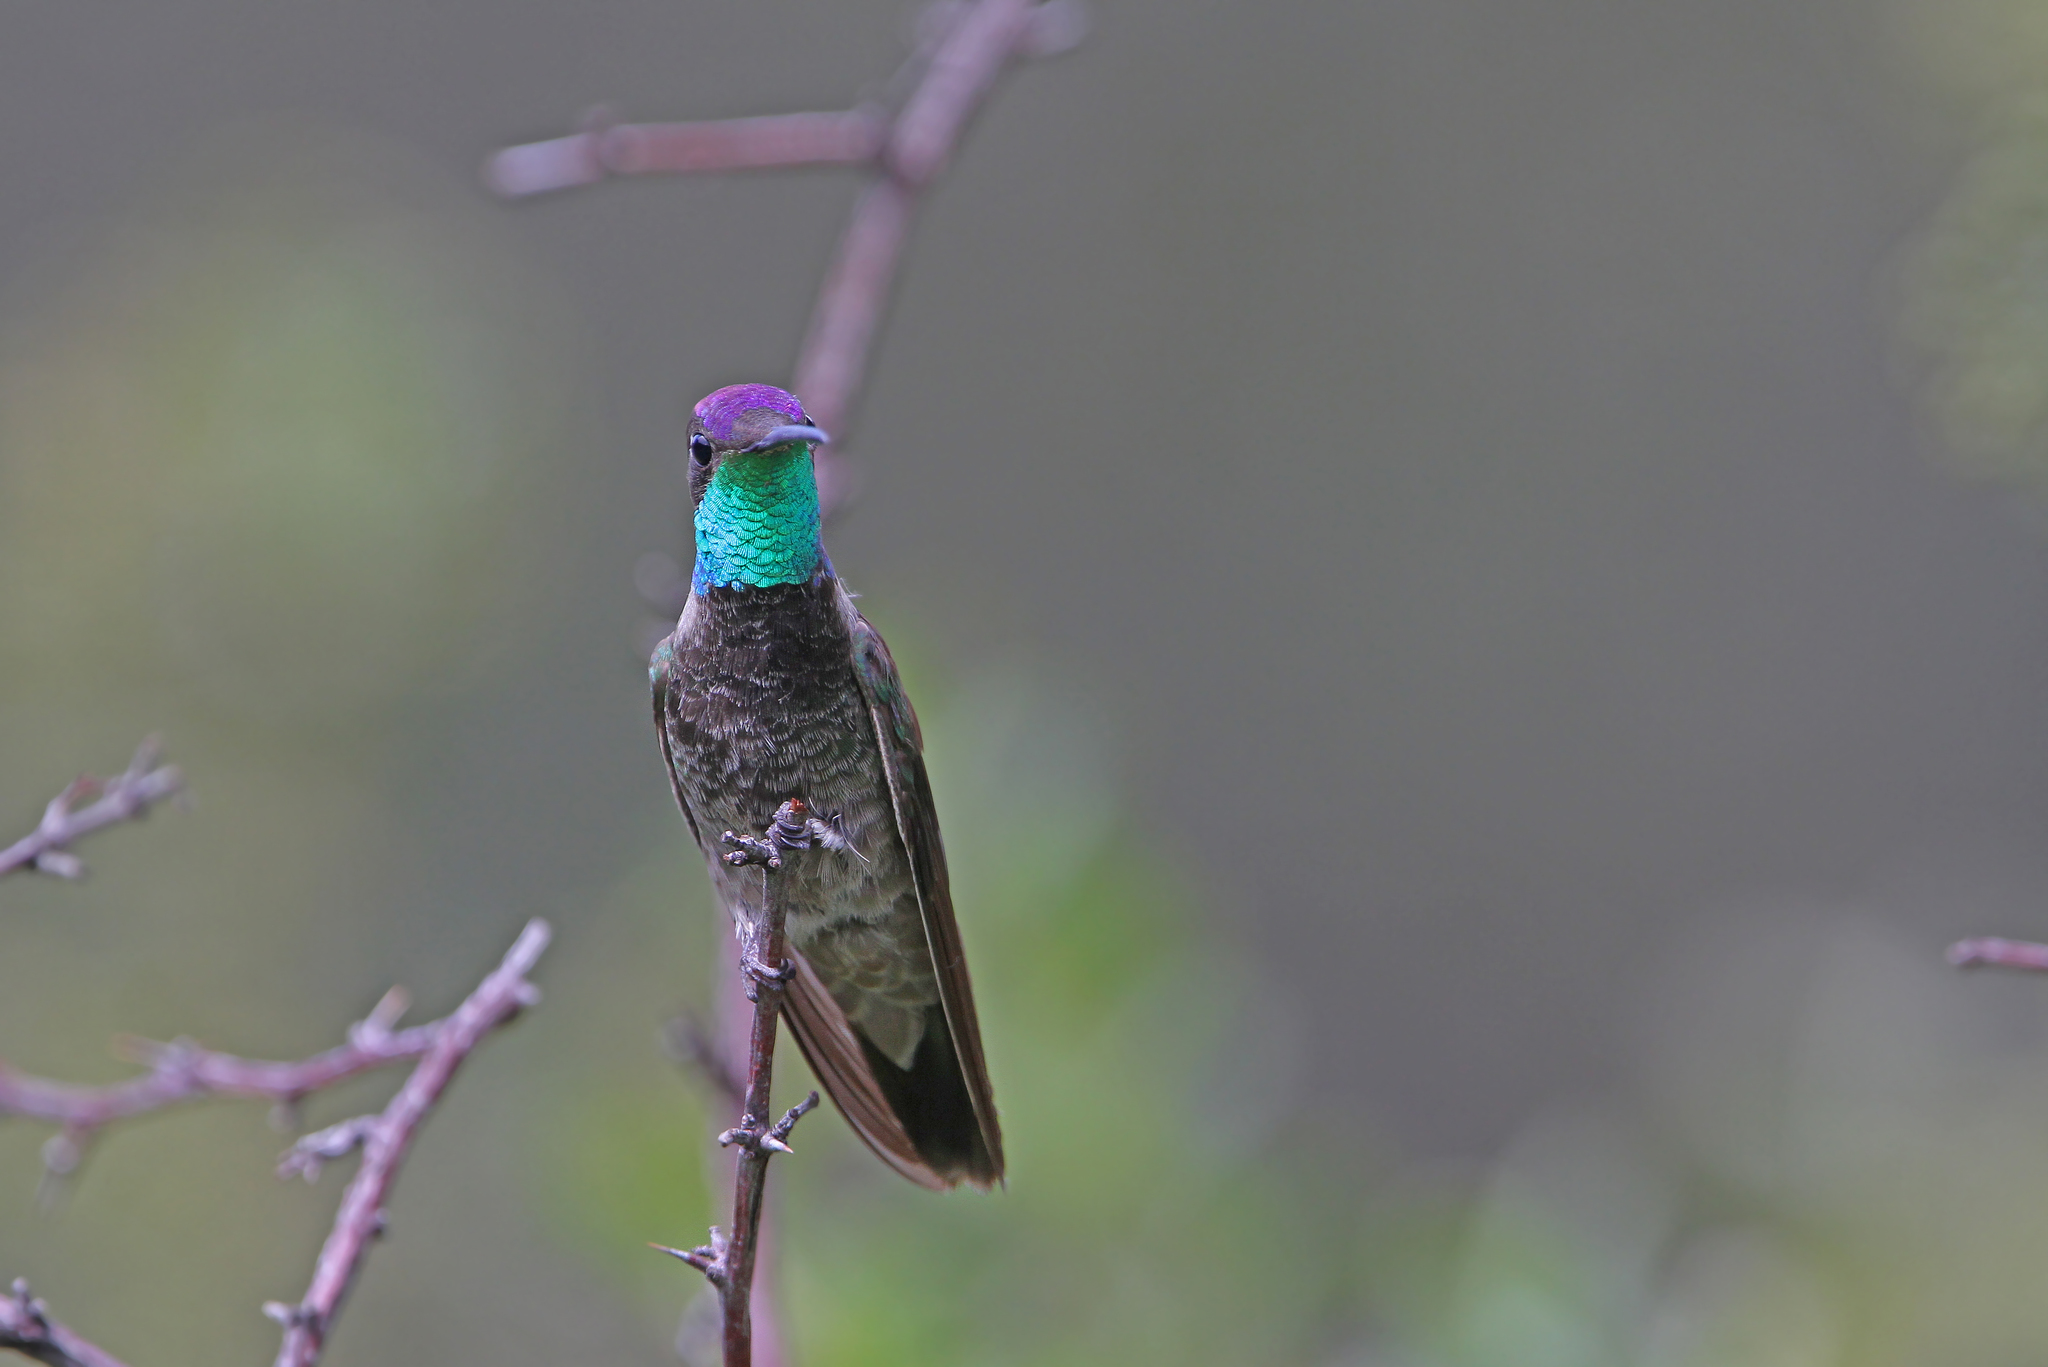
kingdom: Animalia
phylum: Chordata
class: Aves
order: Apodiformes
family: Trochilidae
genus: Eugenes
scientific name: Eugenes fulgens
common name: Magnificent hummingbird
